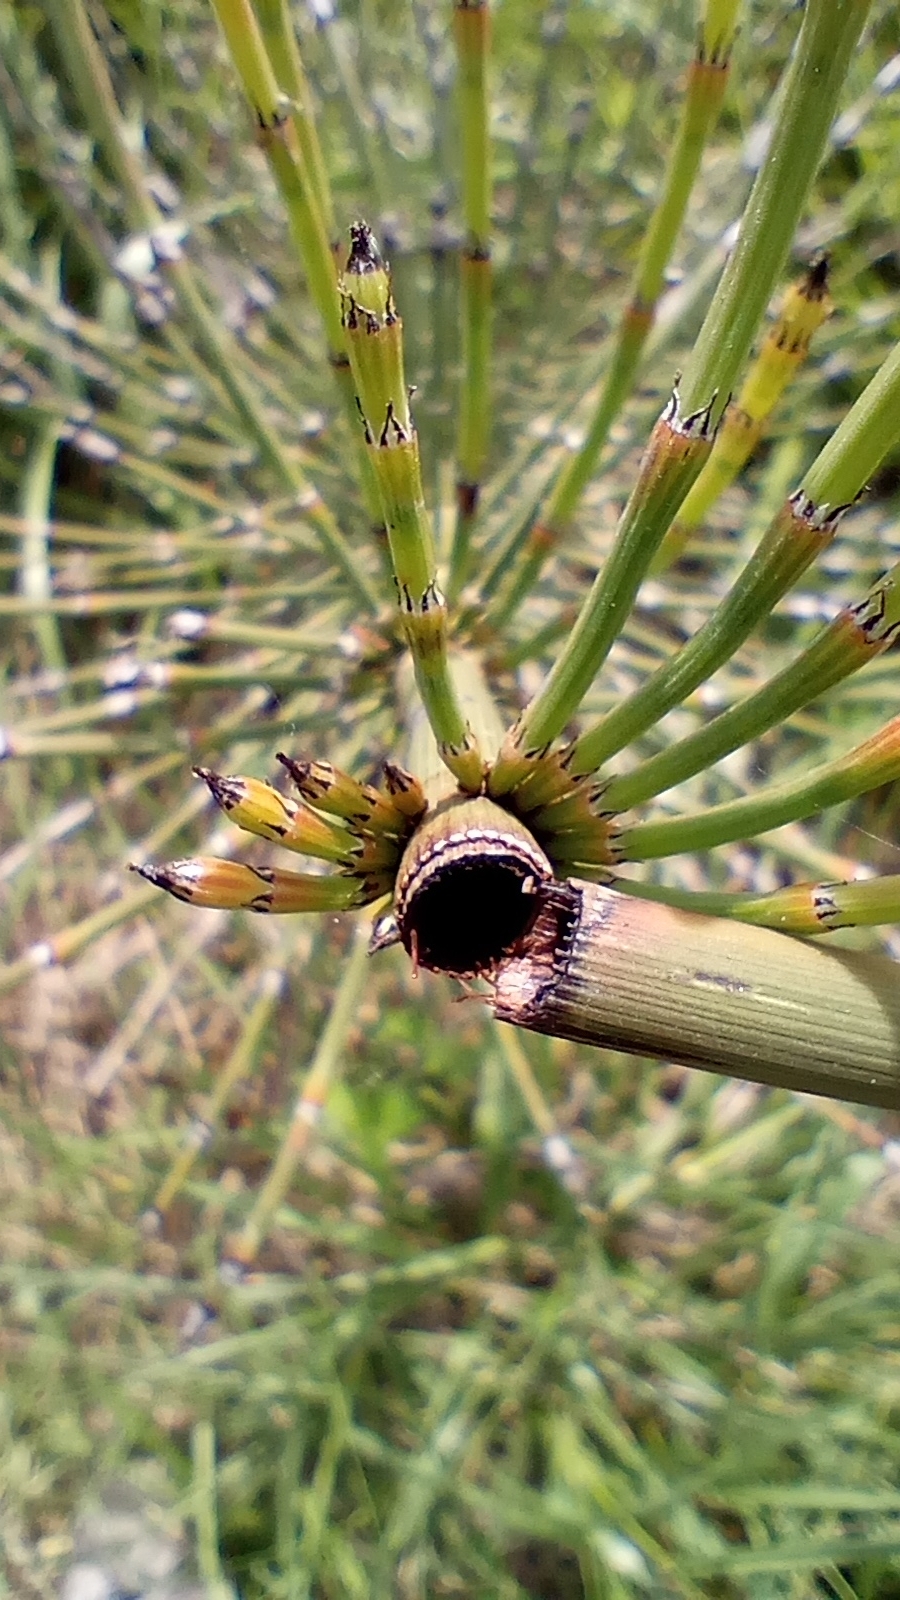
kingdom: Plantae
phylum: Tracheophyta
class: Polypodiopsida
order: Equisetales
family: Equisetaceae
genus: Equisetum
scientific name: Equisetum giganteum
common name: Giant horsetail
